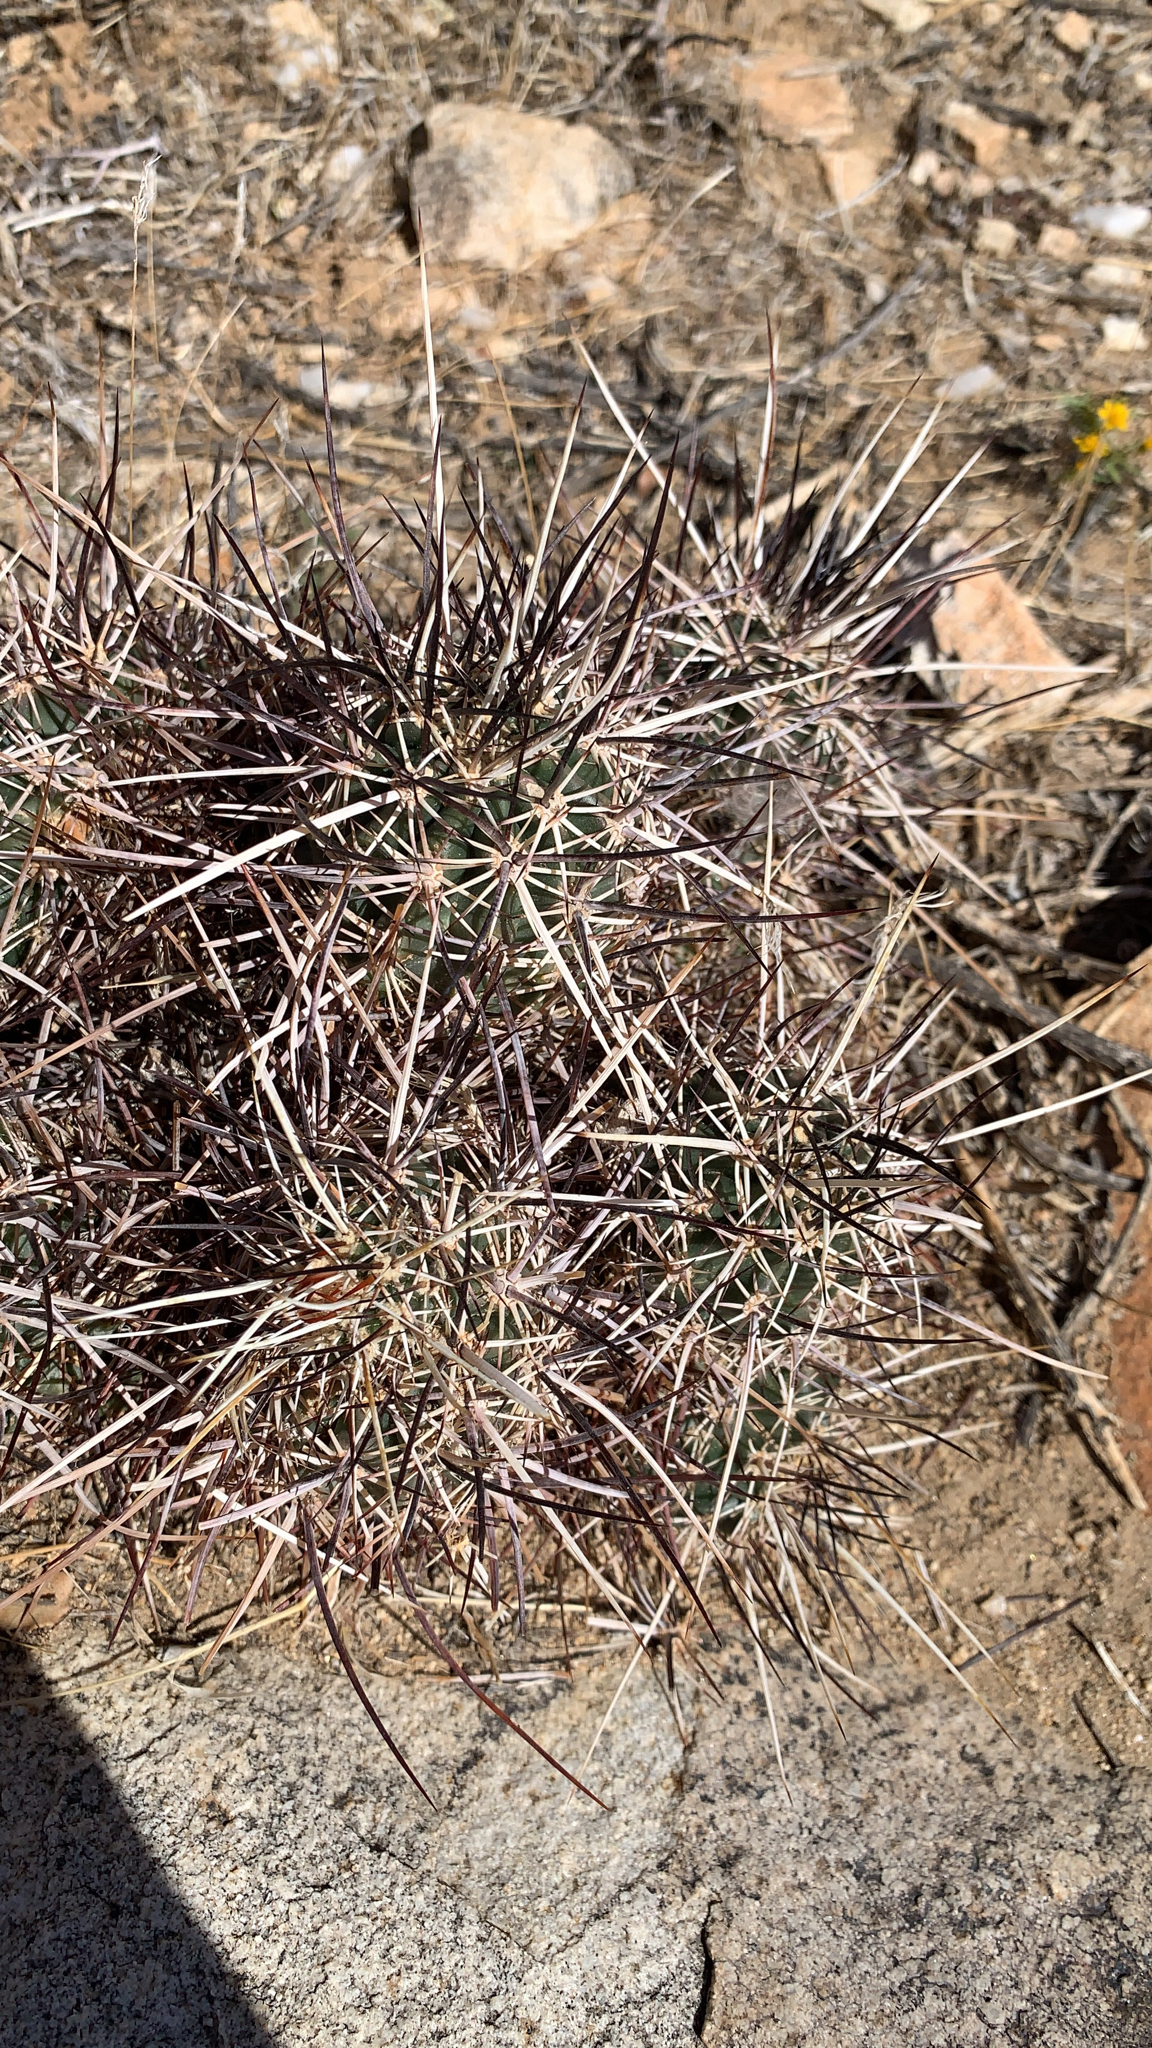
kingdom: Plantae
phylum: Tracheophyta
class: Magnoliopsida
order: Caryophyllales
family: Cactaceae
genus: Echinocereus
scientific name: Echinocereus engelmannii
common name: Engelmann's hedgehog cactus
